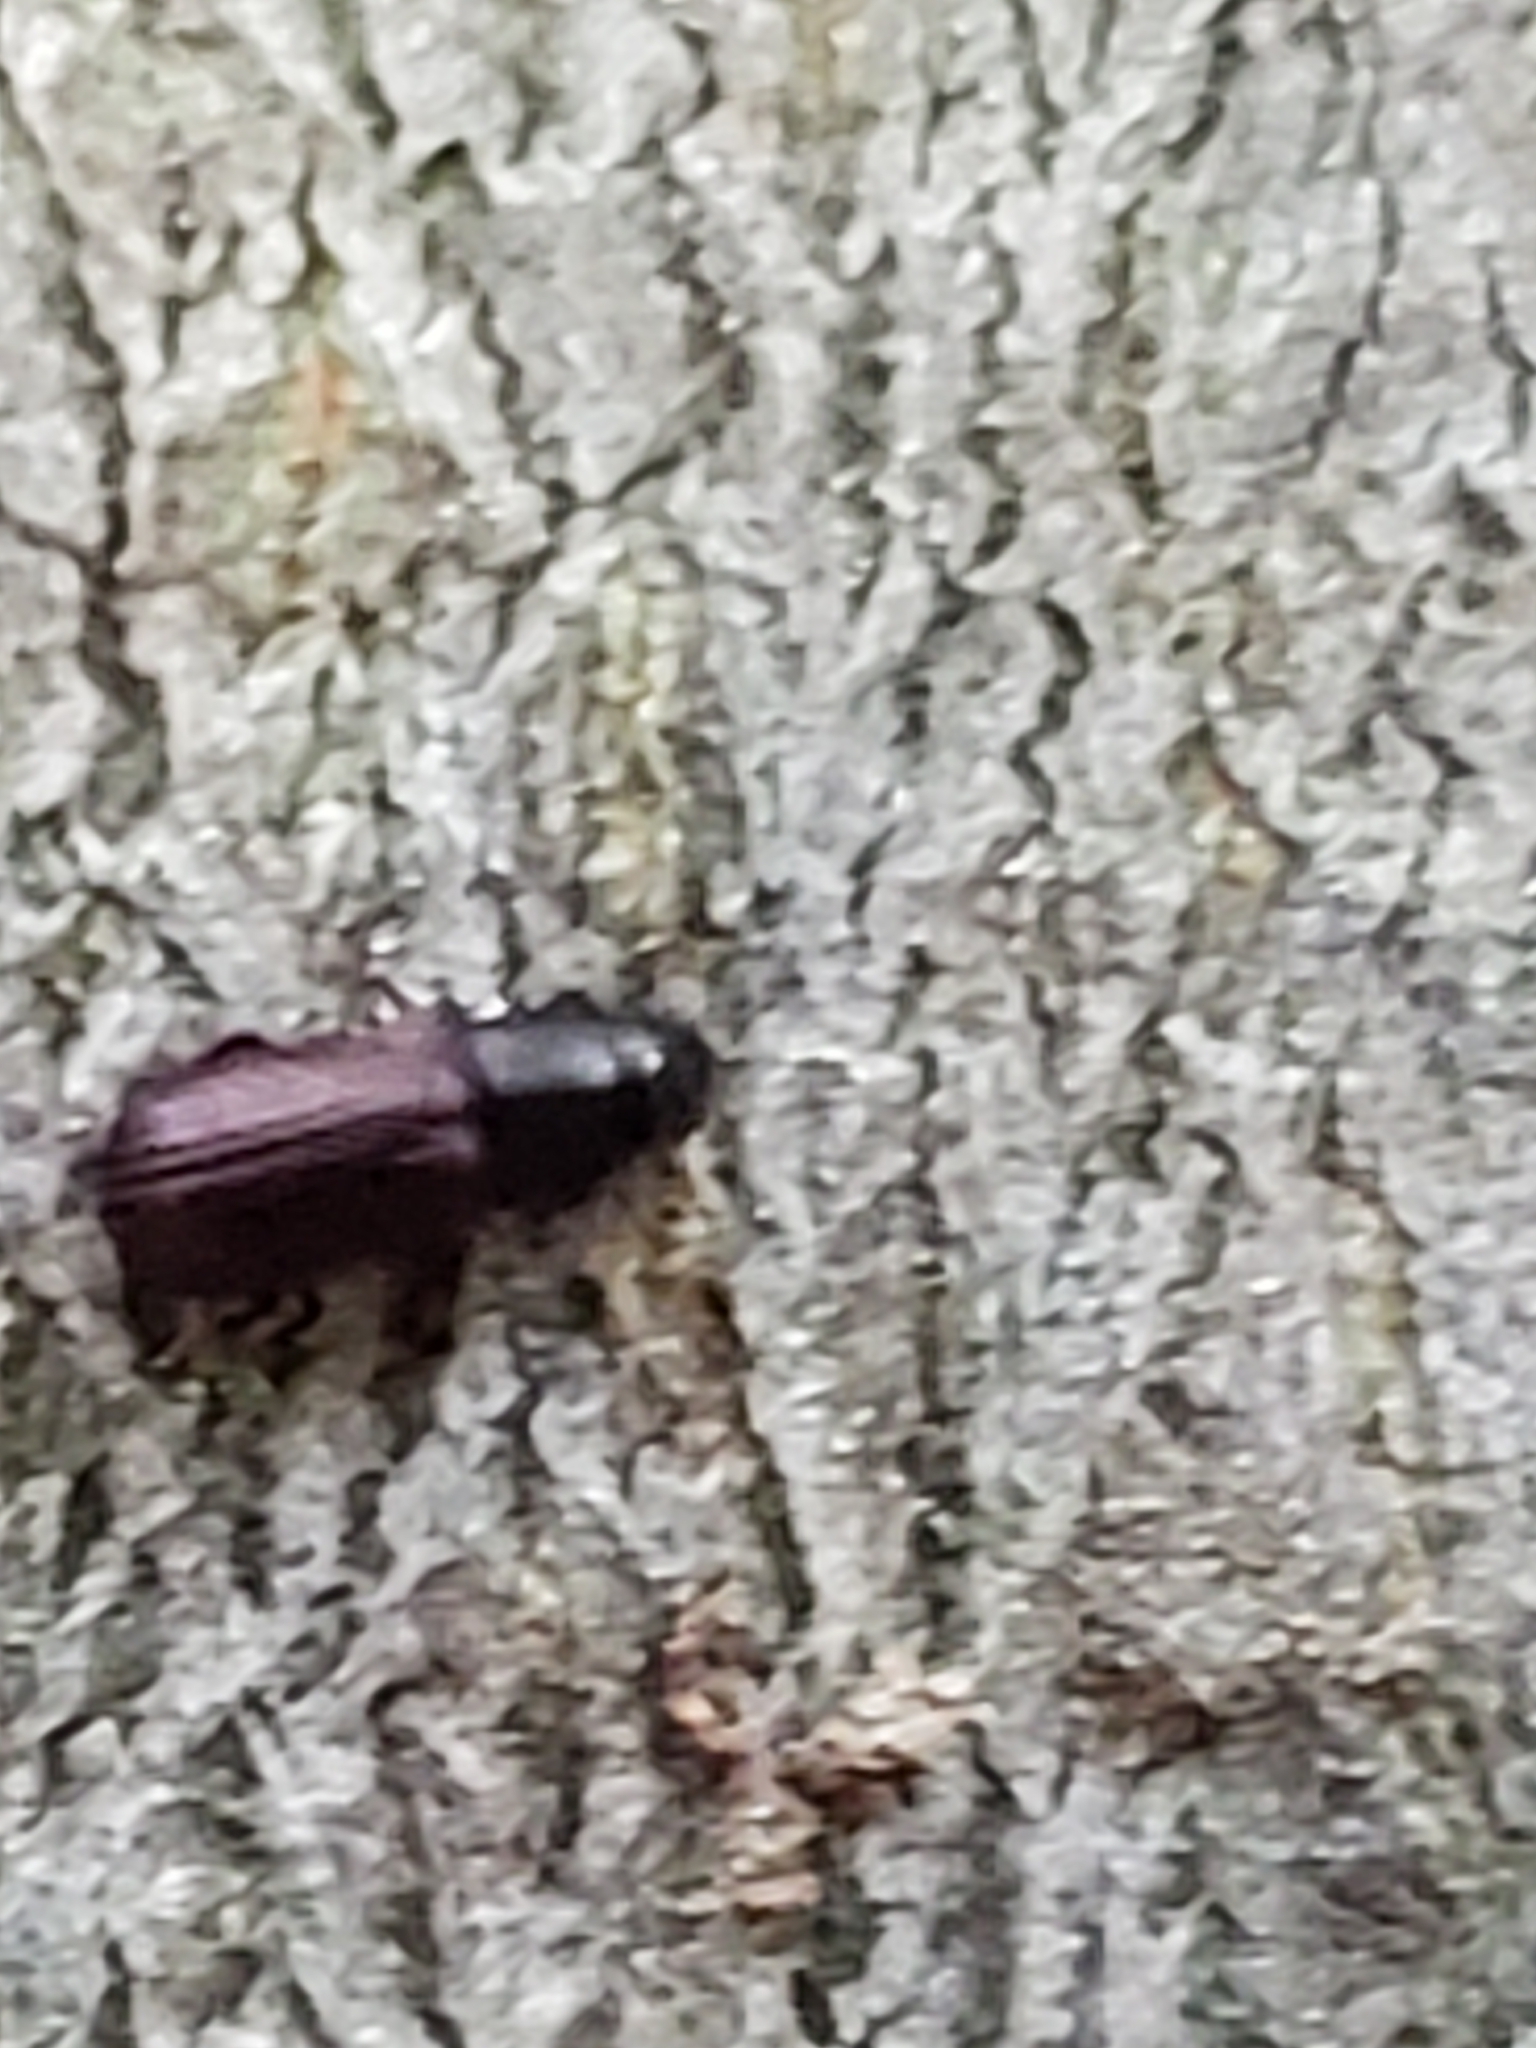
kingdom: Animalia
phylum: Arthropoda
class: Insecta
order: Coleoptera
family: Curculionidae
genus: Stenoscelis
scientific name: Stenoscelis brevis
